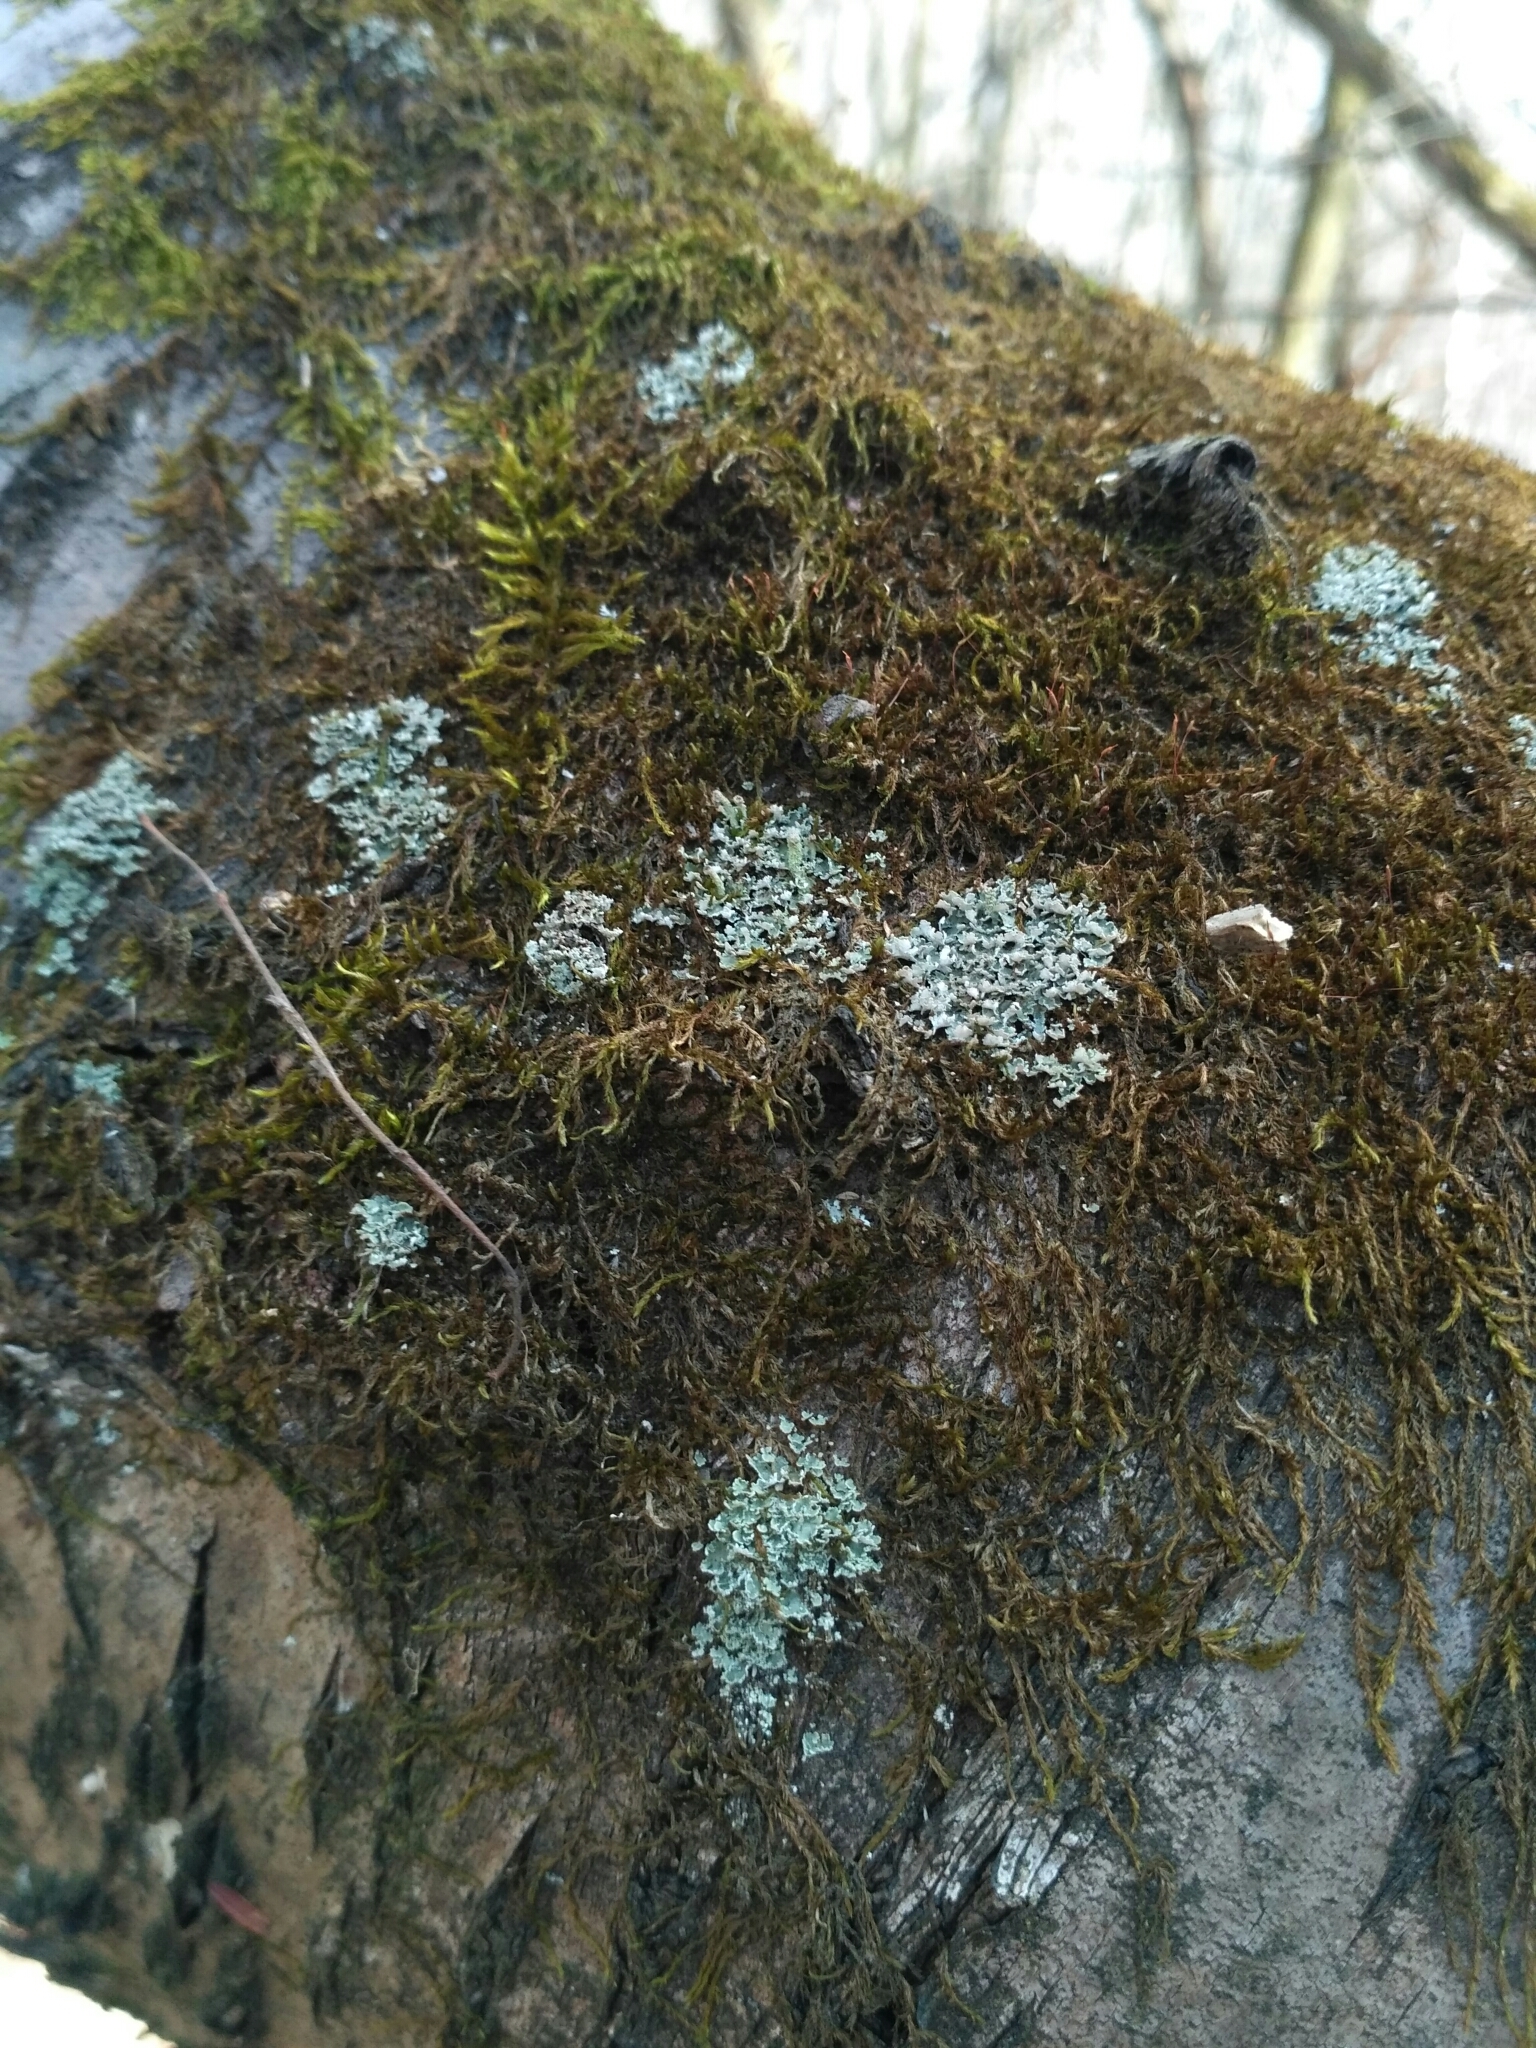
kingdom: Fungi
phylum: Ascomycota
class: Lecanoromycetes
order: Lecanorales
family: Cladoniaceae
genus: Cladonia
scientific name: Cladonia coniocraea
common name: Common powderhorn
